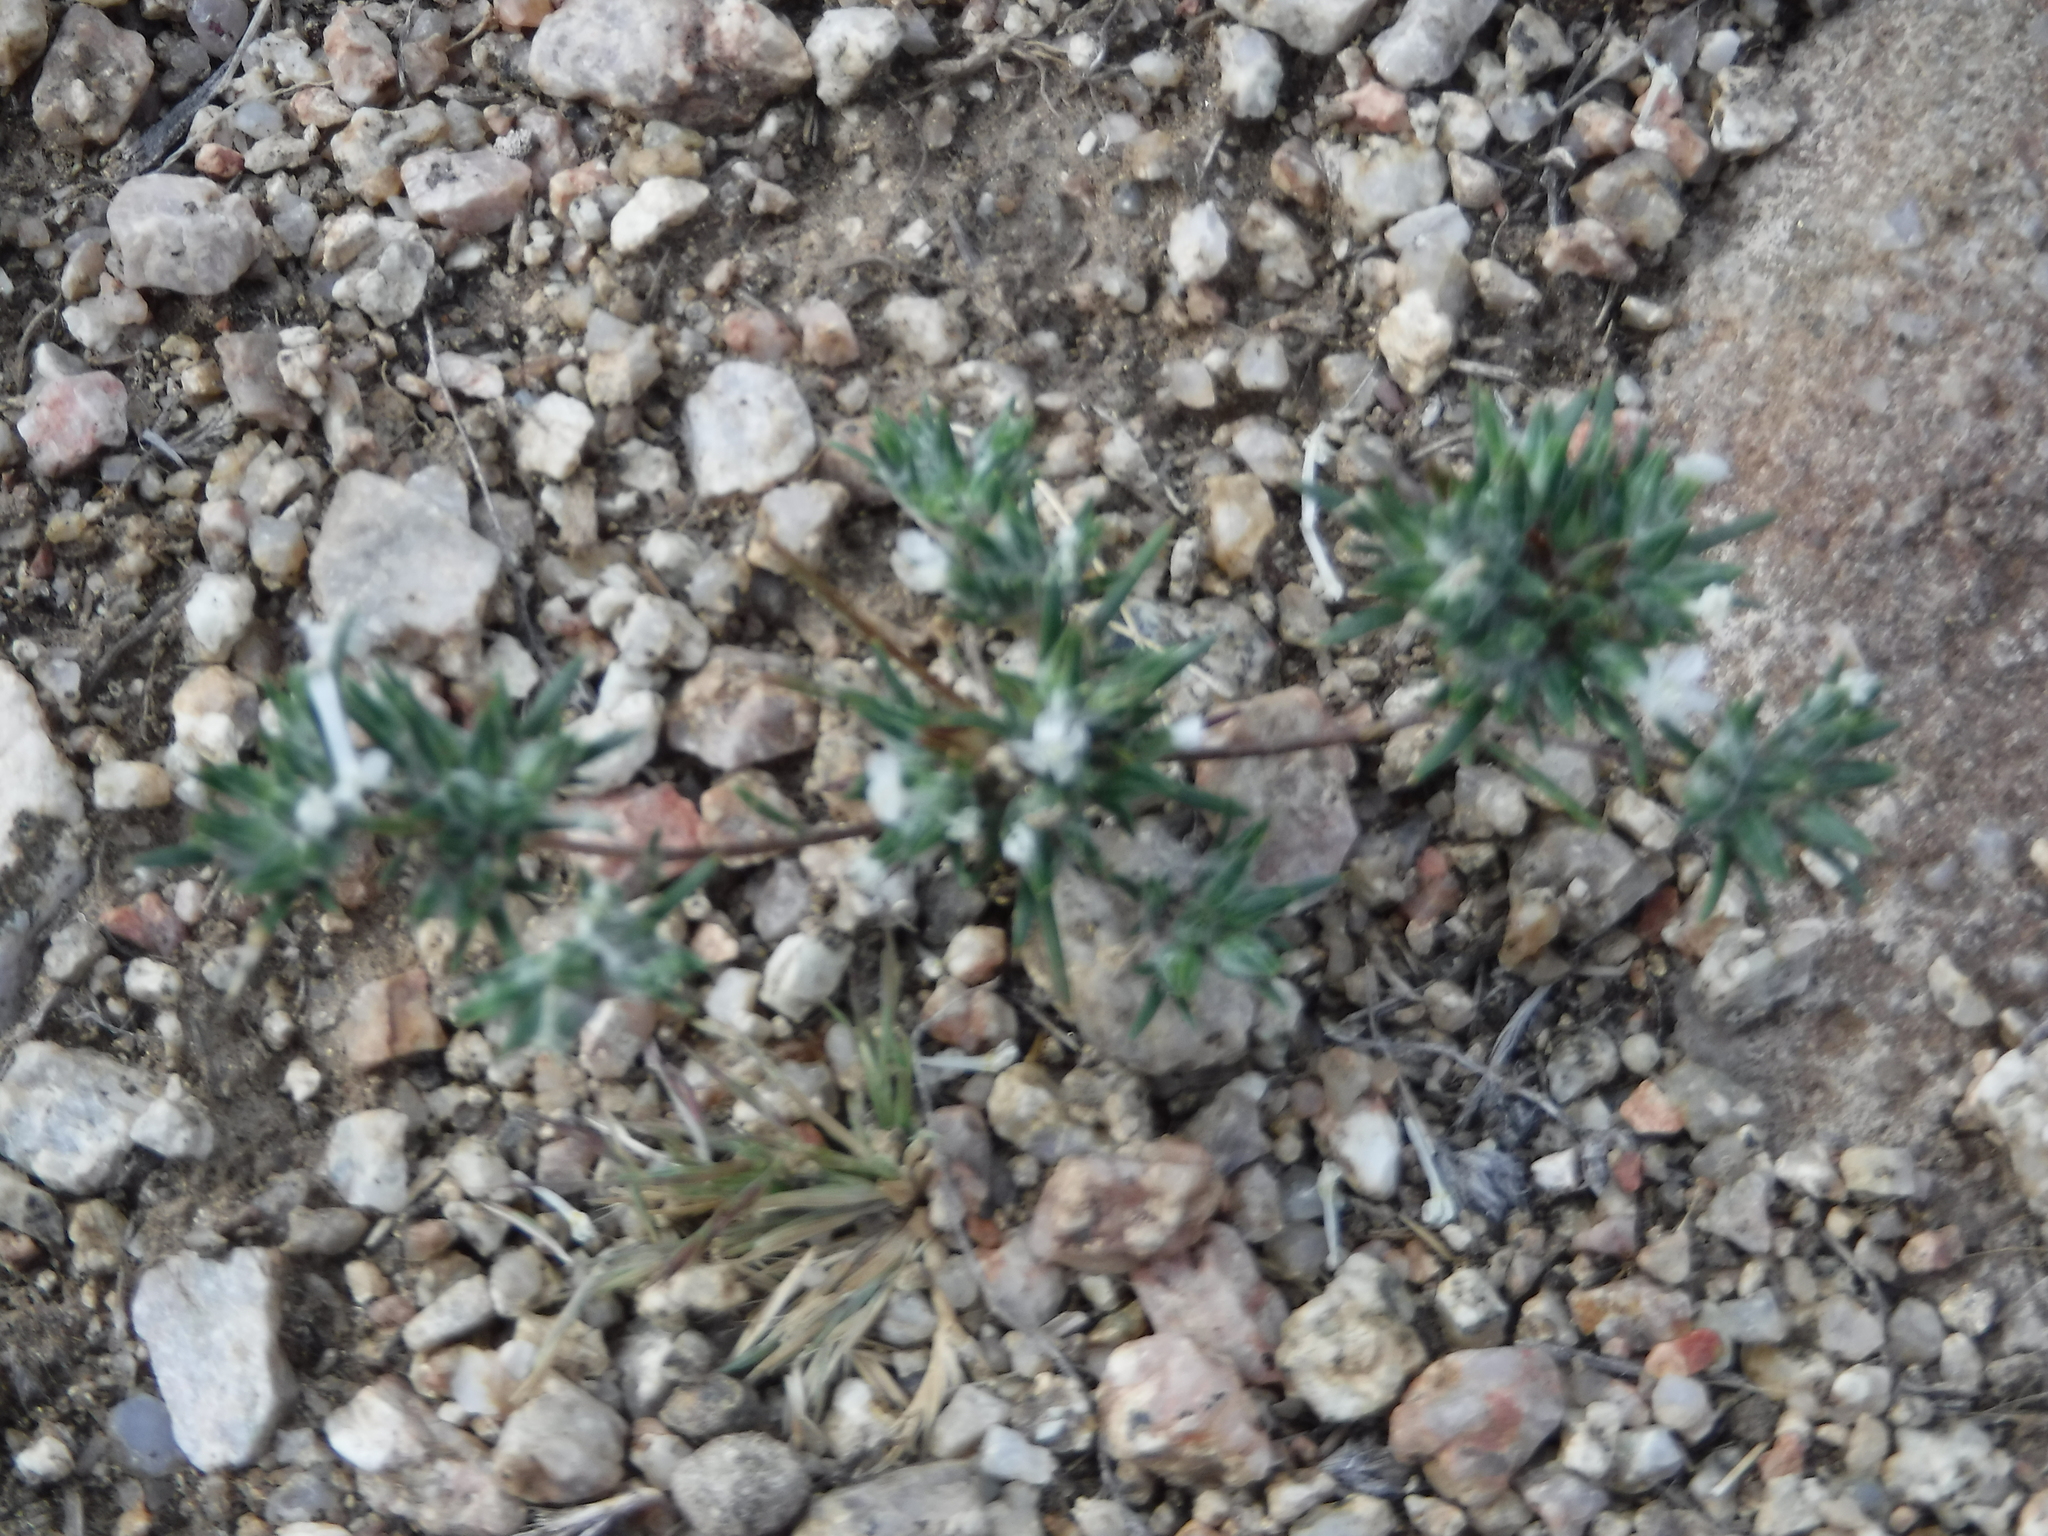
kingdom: Plantae
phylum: Tracheophyta
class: Magnoliopsida
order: Ericales
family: Polemoniaceae
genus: Eriastrum
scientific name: Eriastrum diffusum
